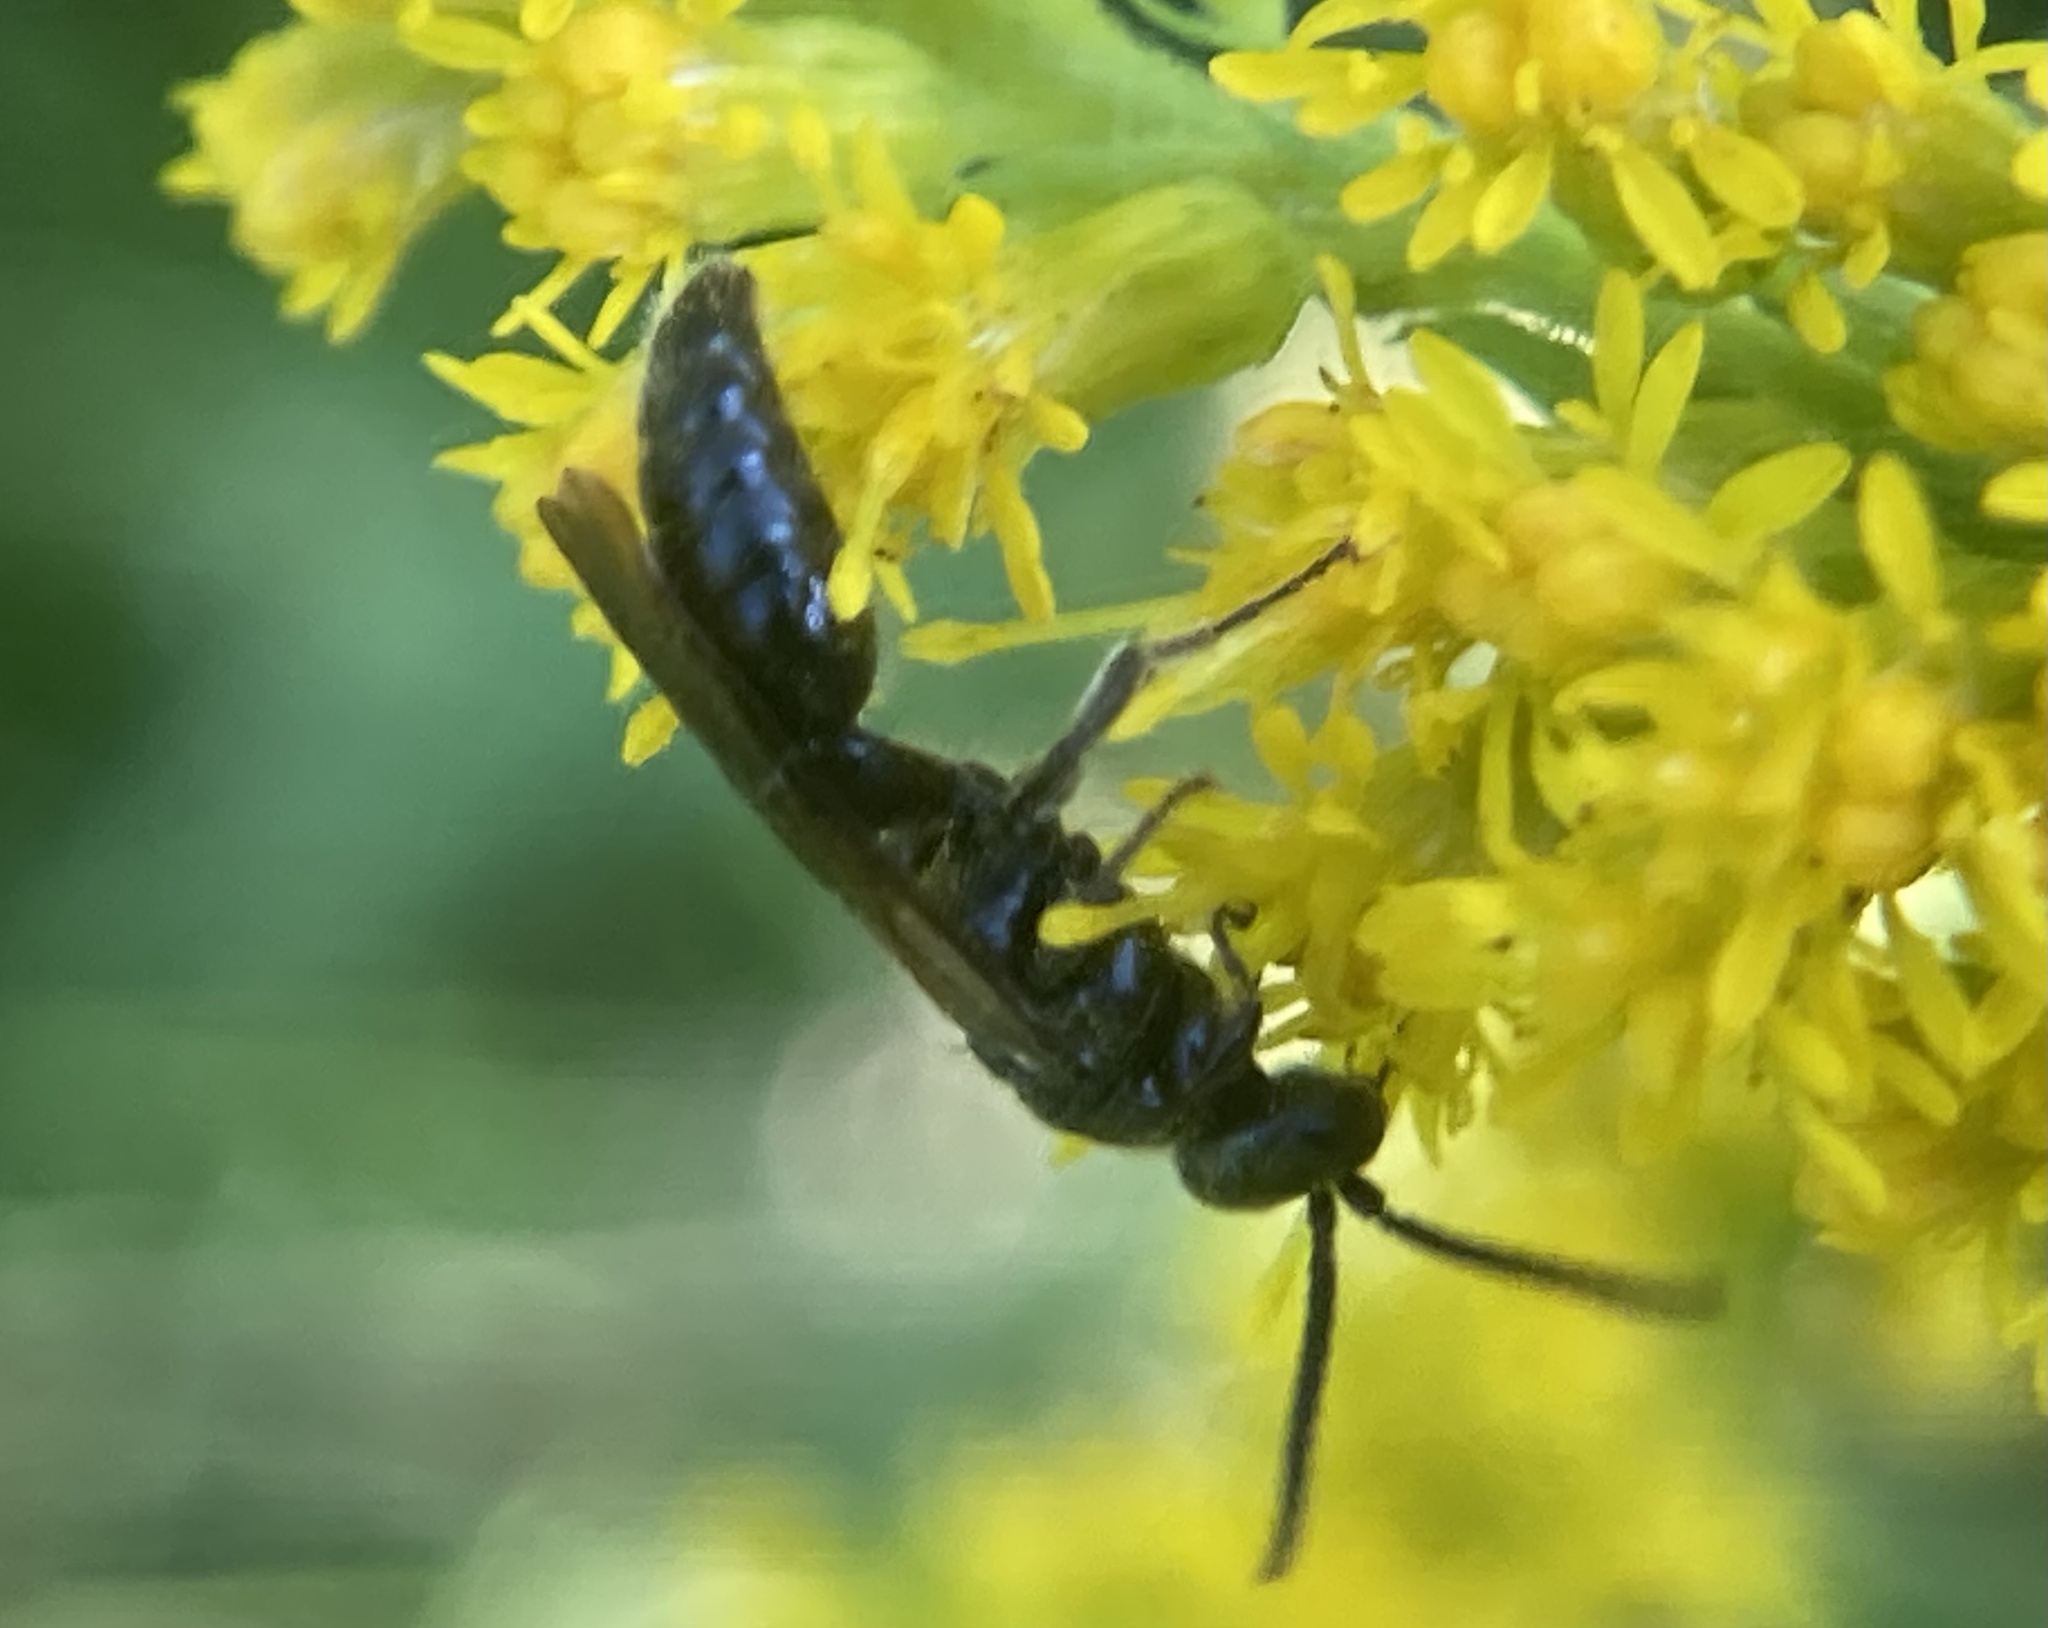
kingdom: Animalia
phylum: Arthropoda
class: Insecta
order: Hymenoptera
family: Tiphiidae
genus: Tiphia
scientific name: Tiphia
